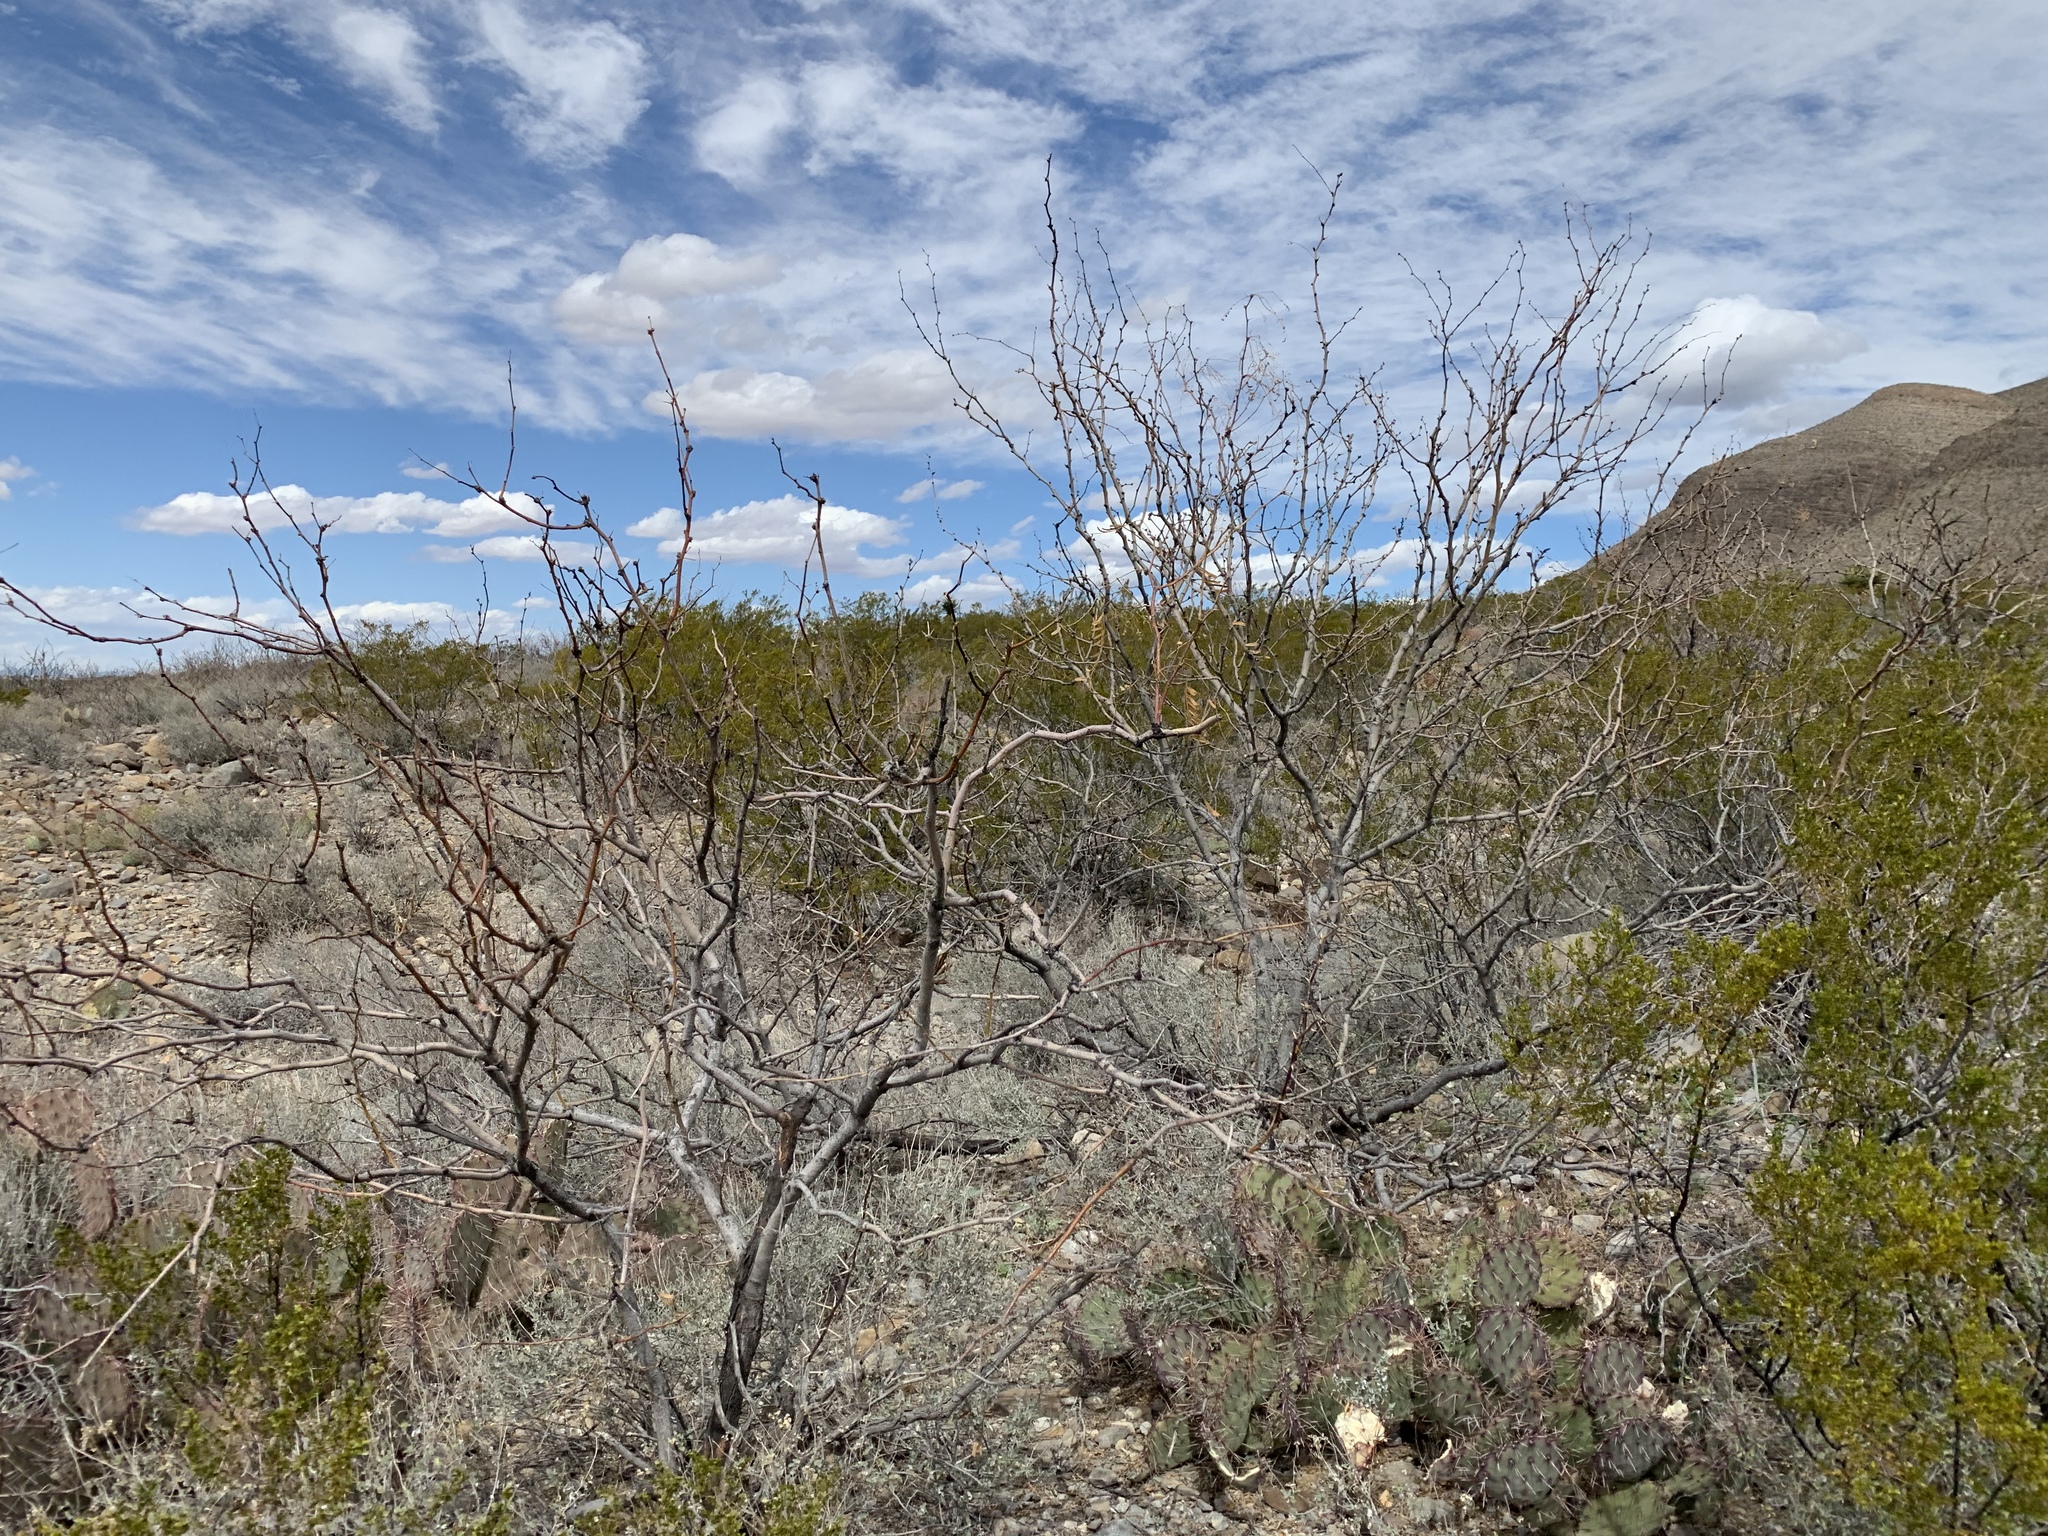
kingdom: Plantae
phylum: Tracheophyta
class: Magnoliopsida
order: Fabales
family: Fabaceae
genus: Prosopis
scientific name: Prosopis glandulosa
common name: Honey mesquite
